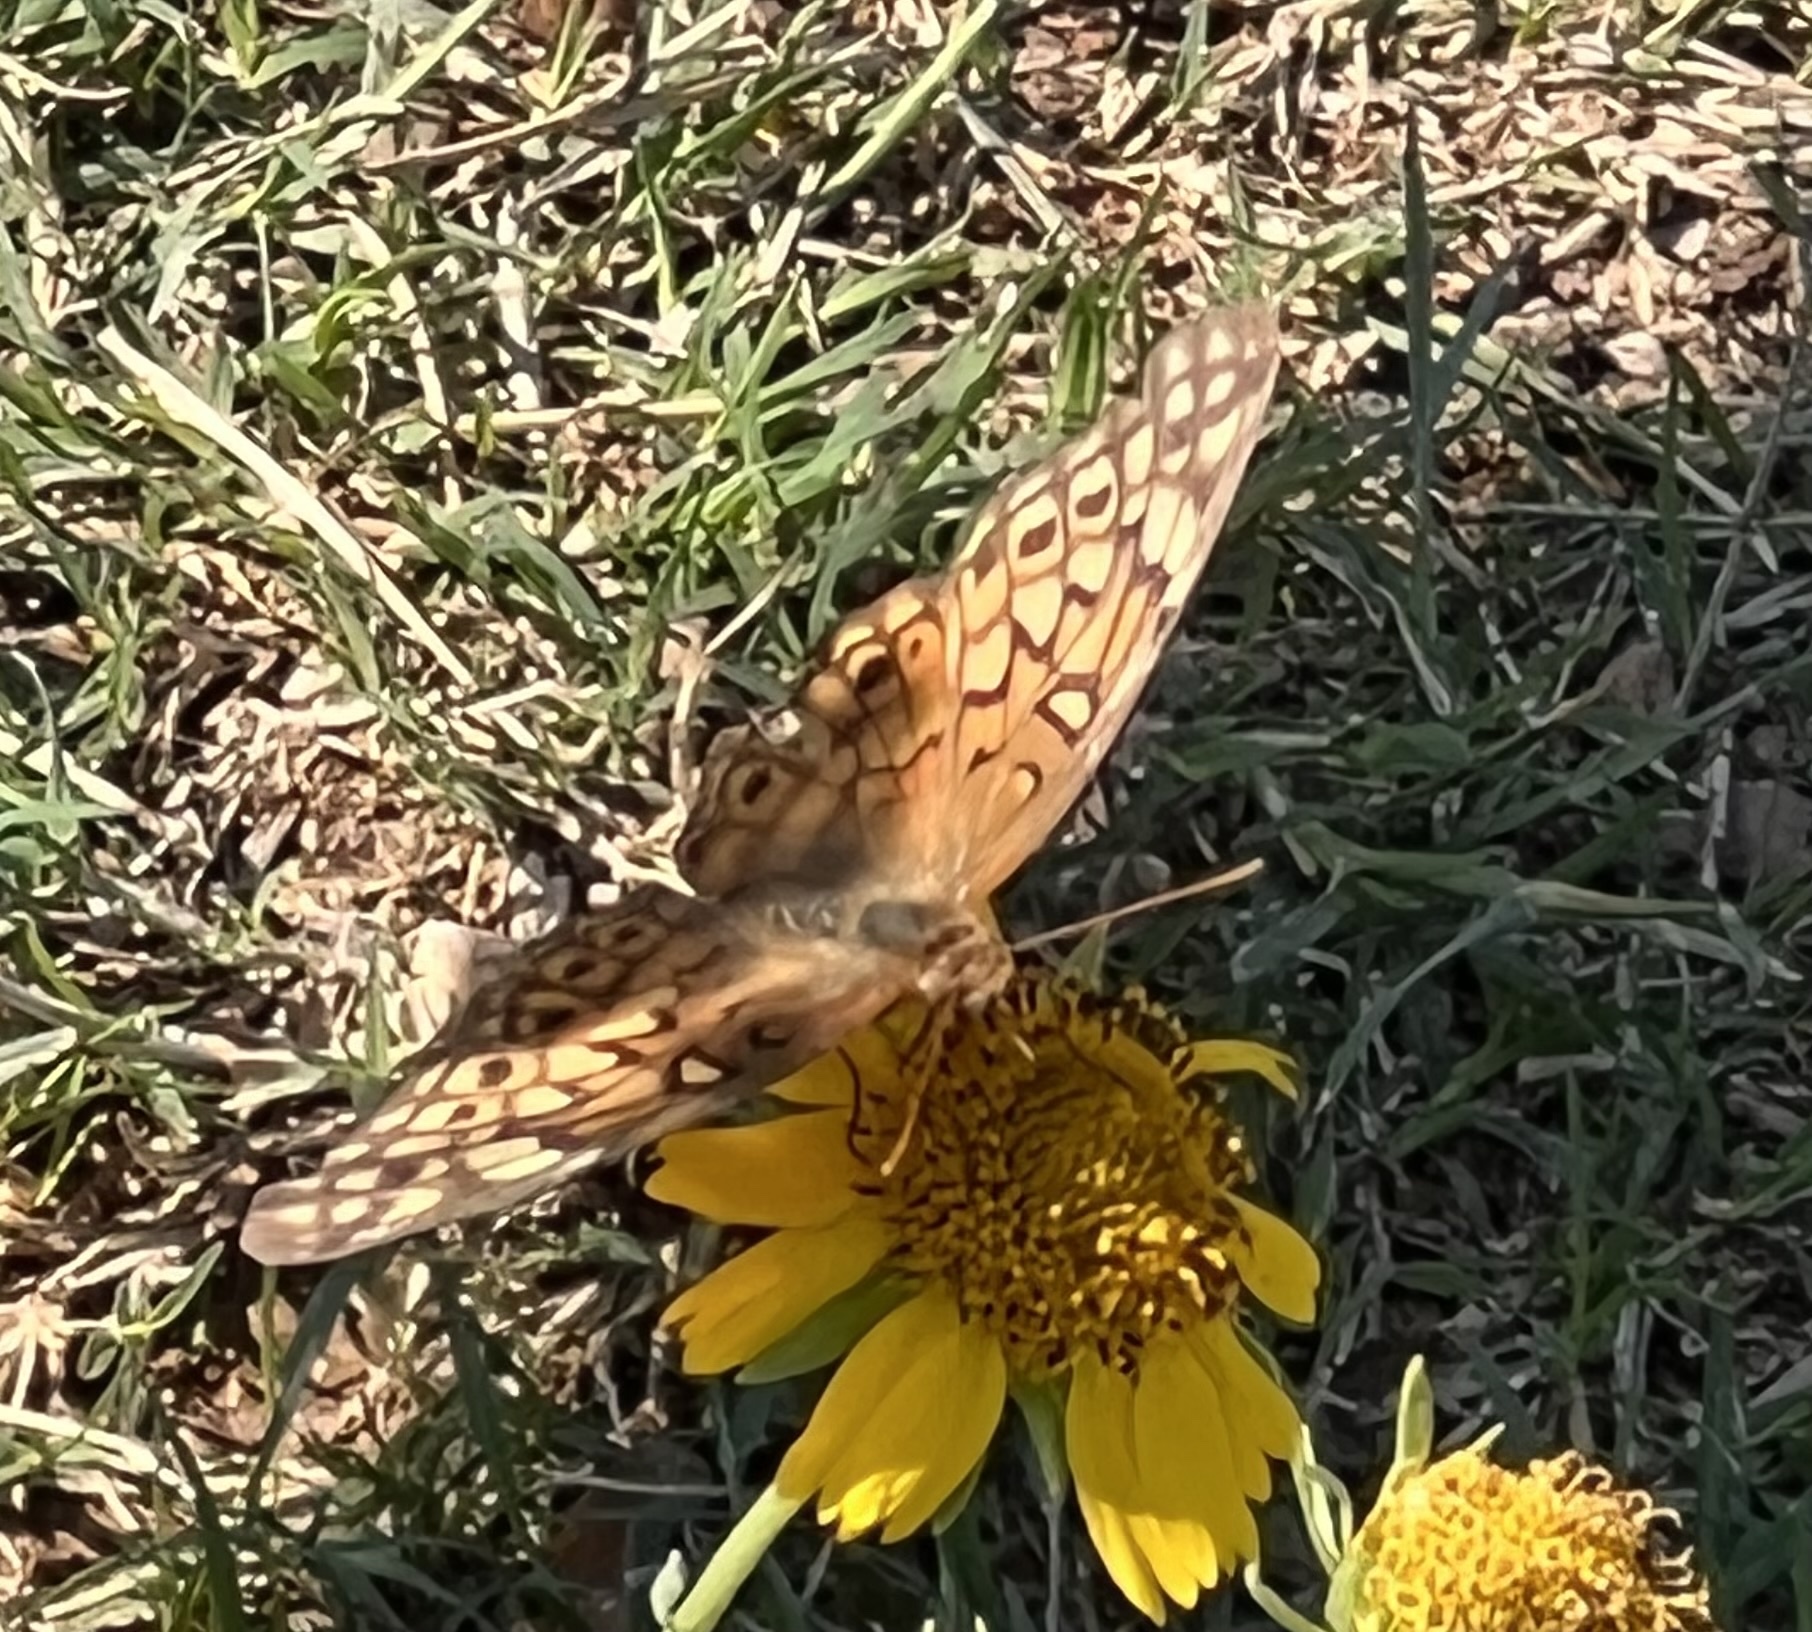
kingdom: Animalia
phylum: Arthropoda
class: Insecta
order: Lepidoptera
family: Nymphalidae
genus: Euptoieta
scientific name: Euptoieta claudia
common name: Variegated fritillary
